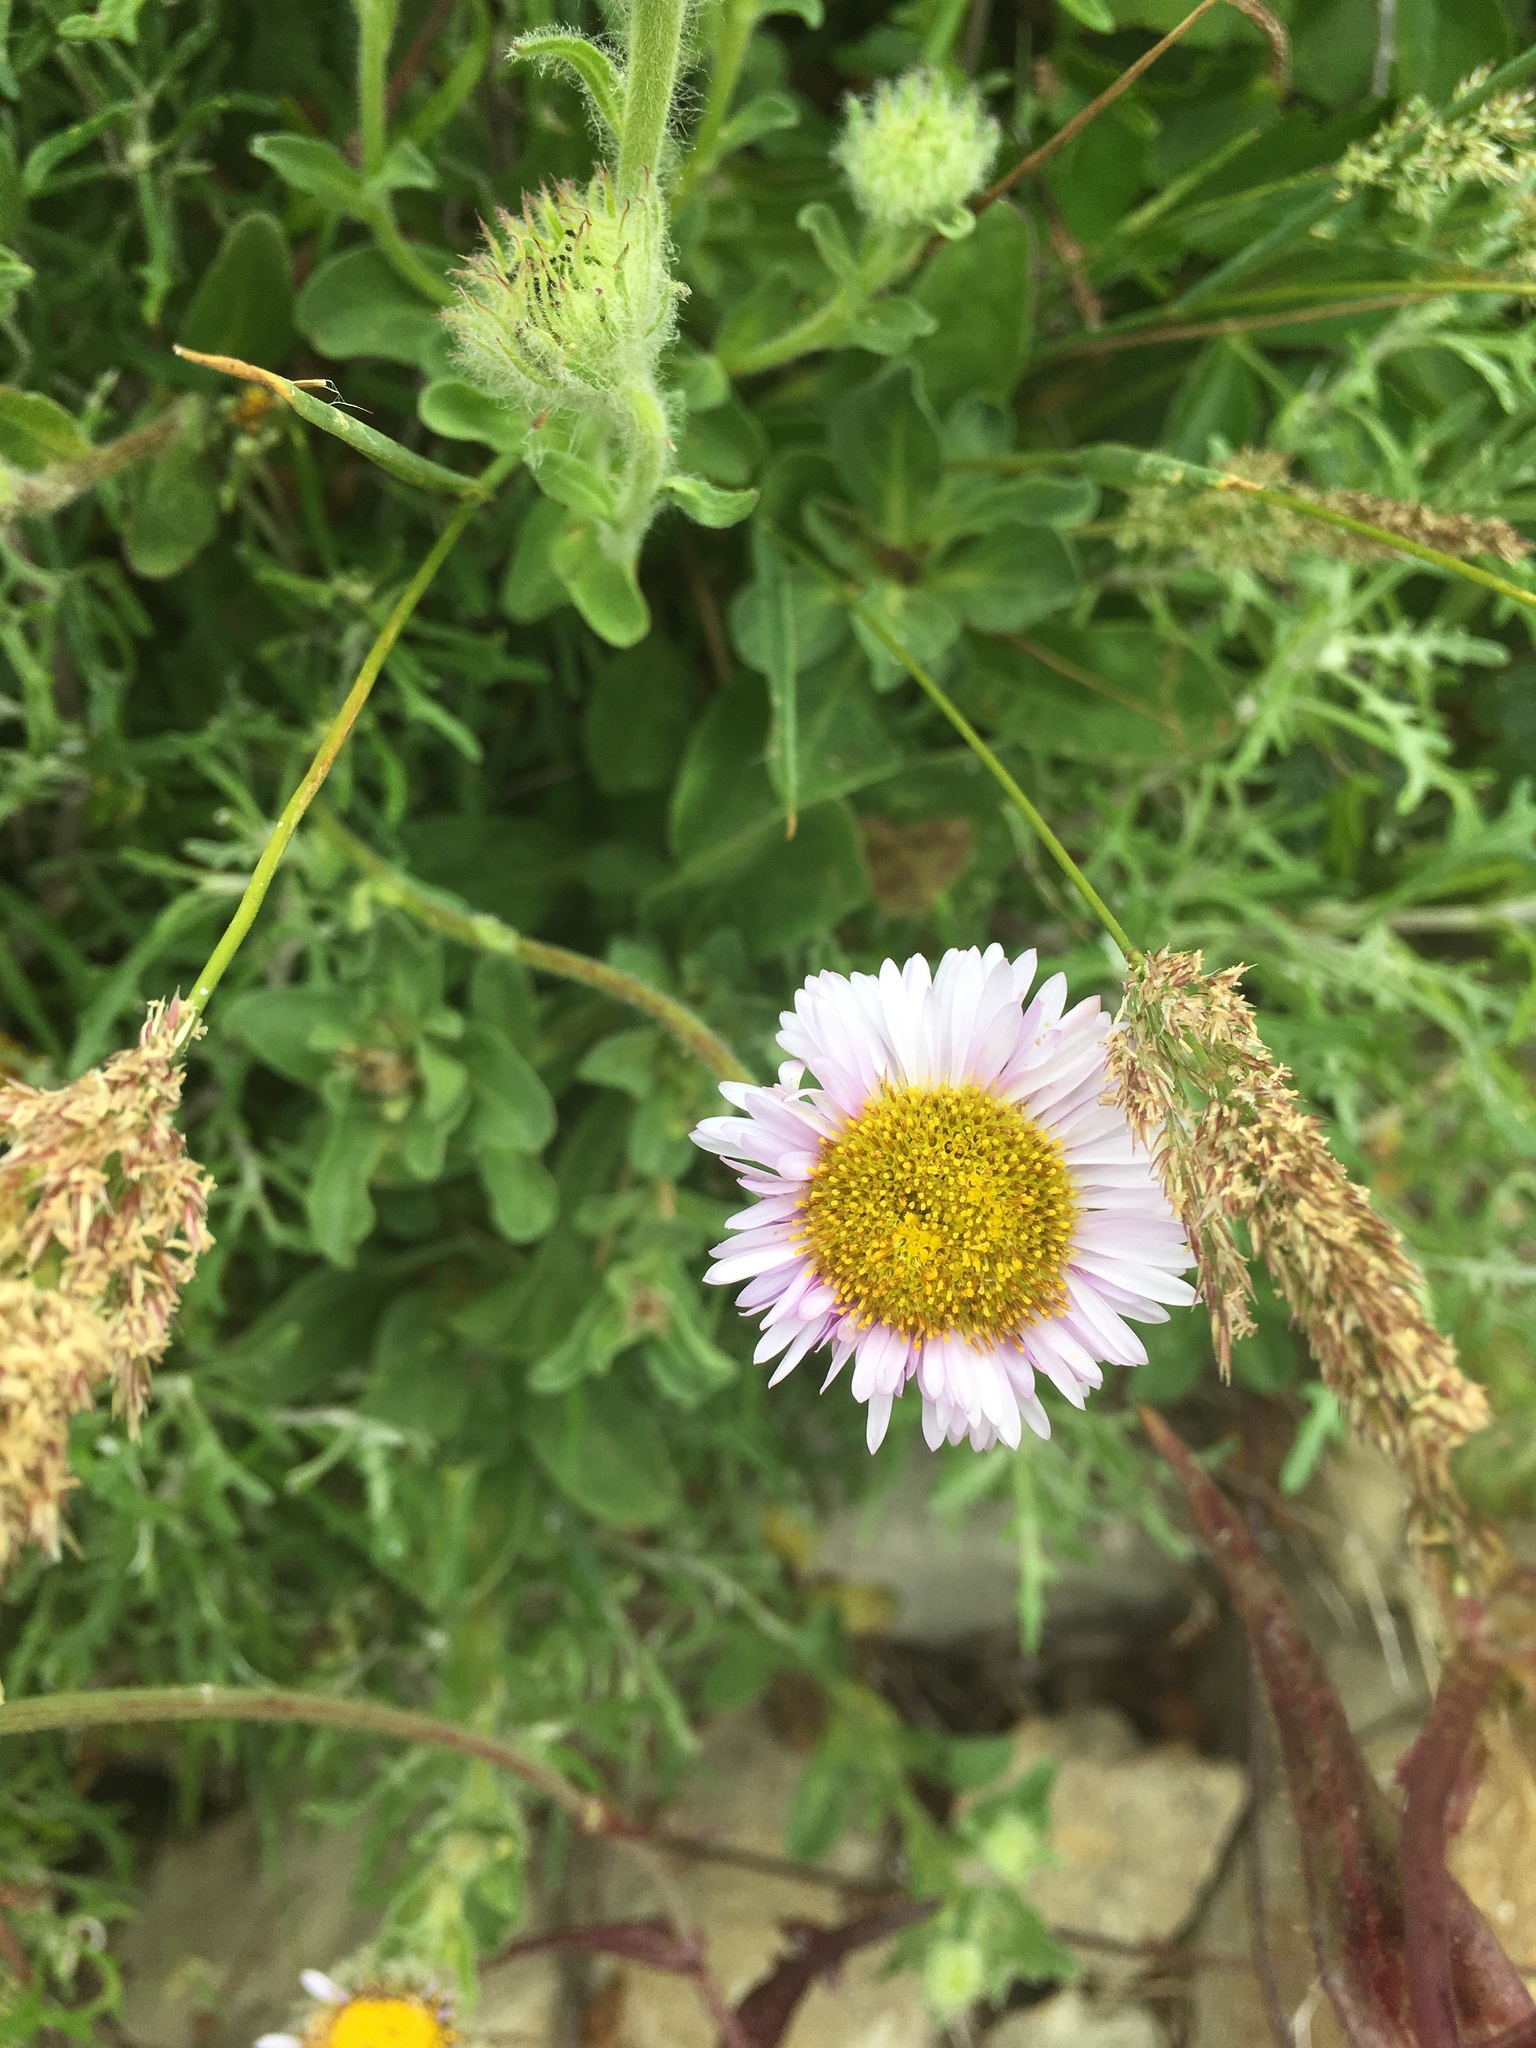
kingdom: Plantae
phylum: Tracheophyta
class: Magnoliopsida
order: Asterales
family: Asteraceae
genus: Erigeron
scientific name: Erigeron glaucus
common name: Seaside daisy
